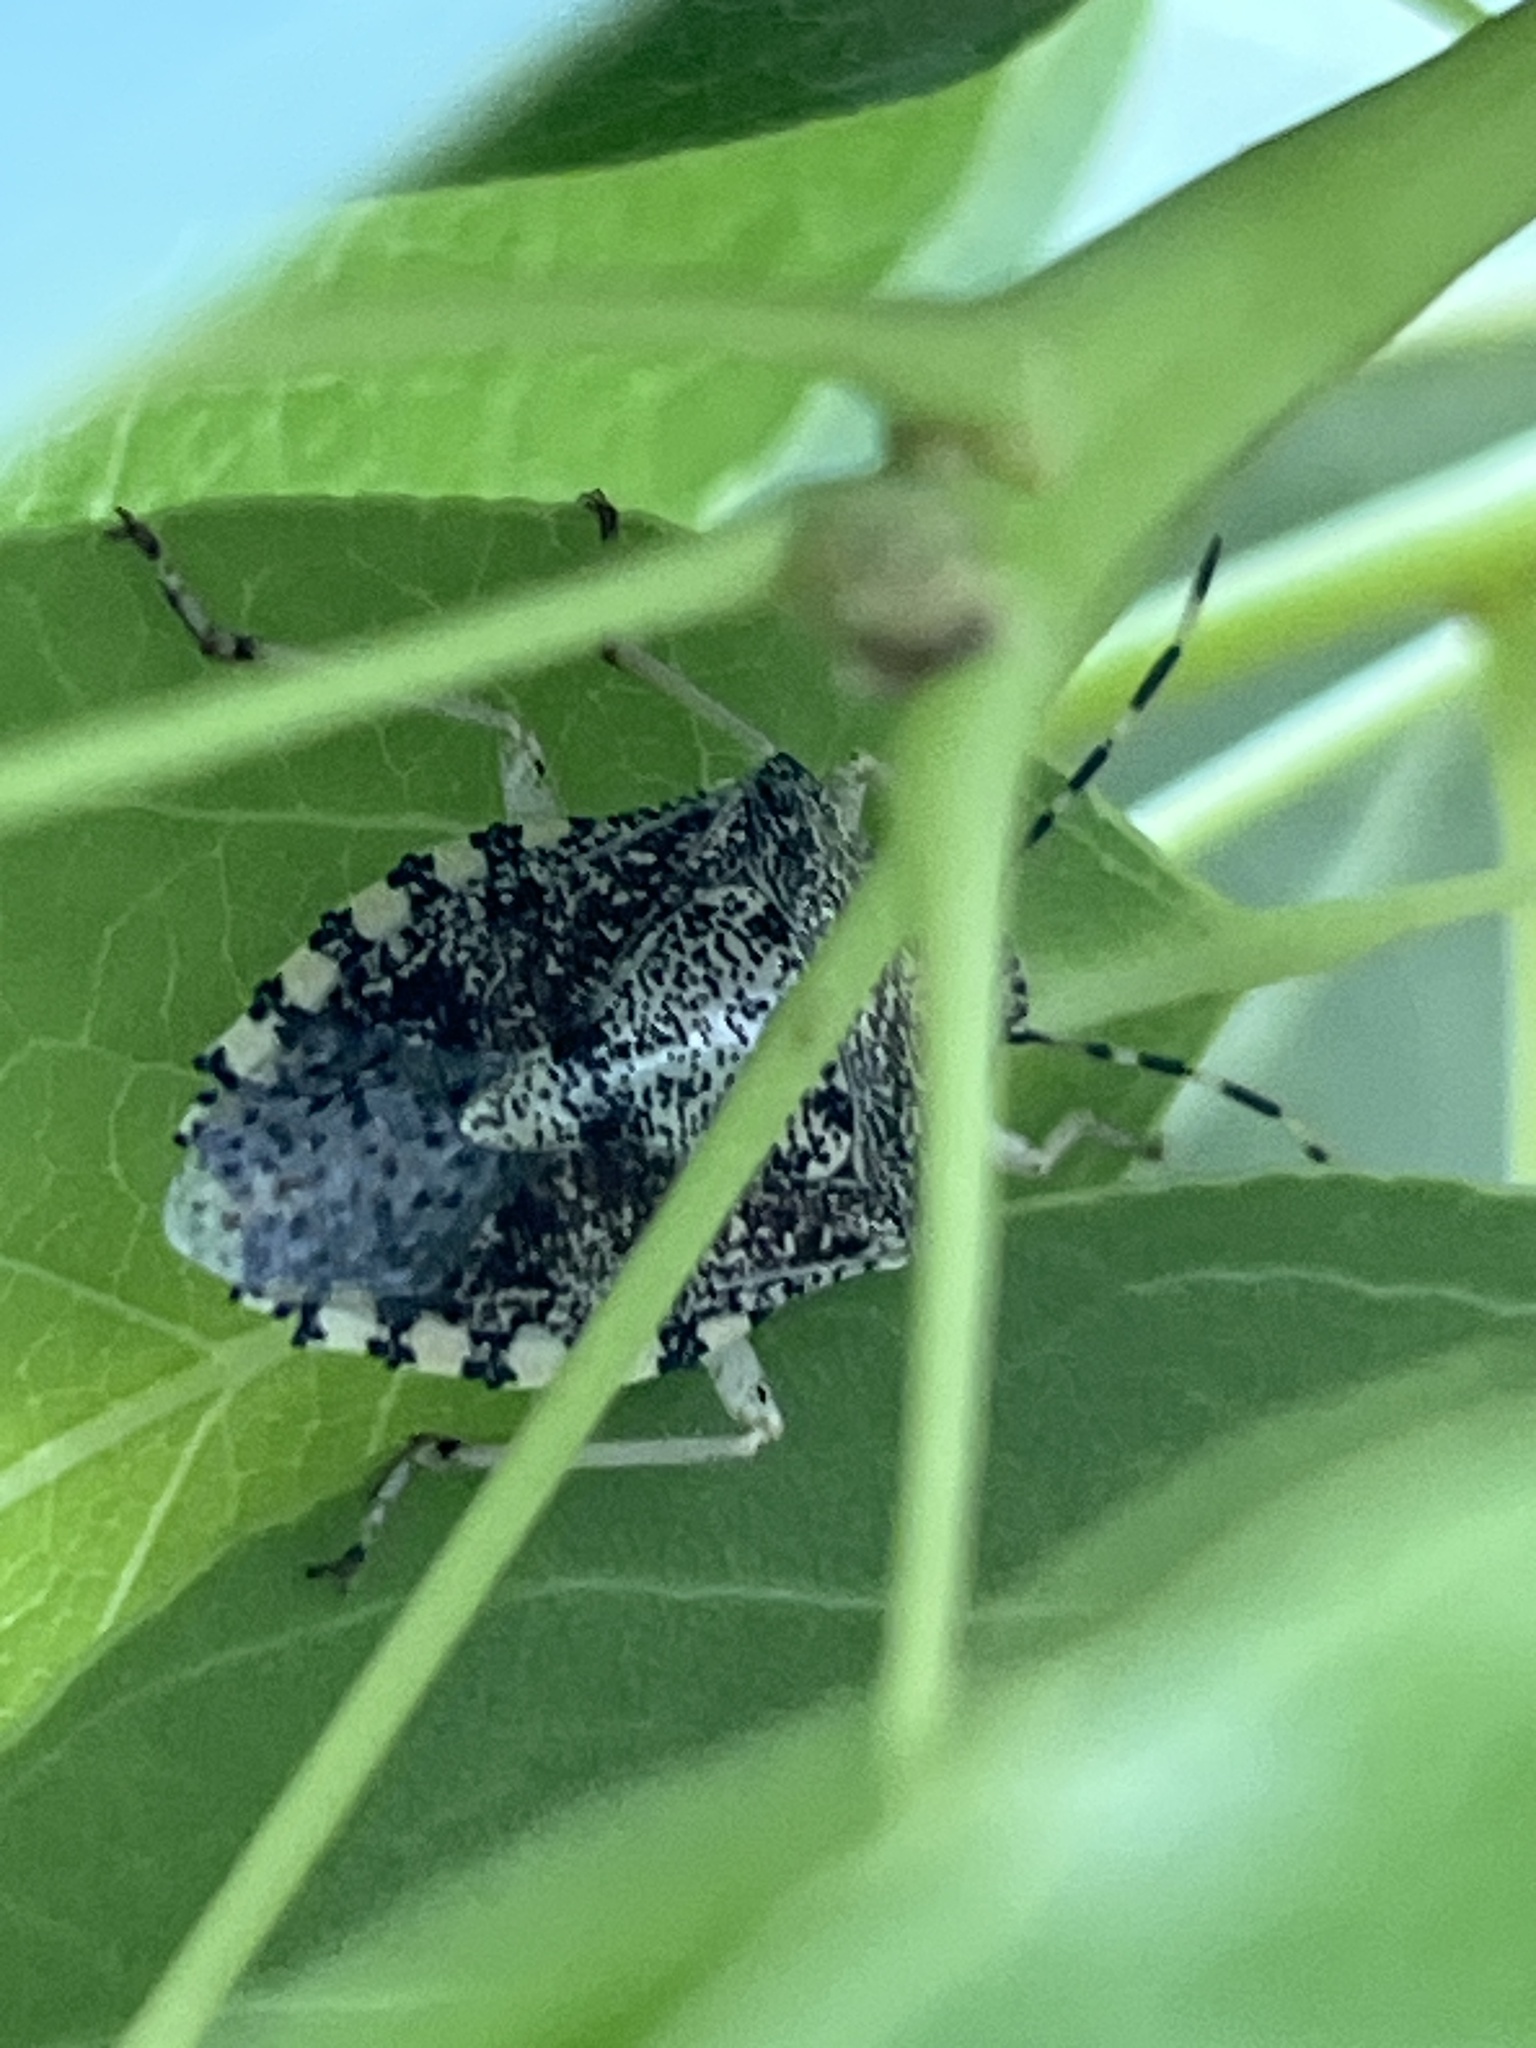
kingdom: Animalia
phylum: Arthropoda
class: Insecta
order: Hemiptera
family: Pentatomidae
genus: Rhaphigaster
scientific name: Rhaphigaster nebulosa
